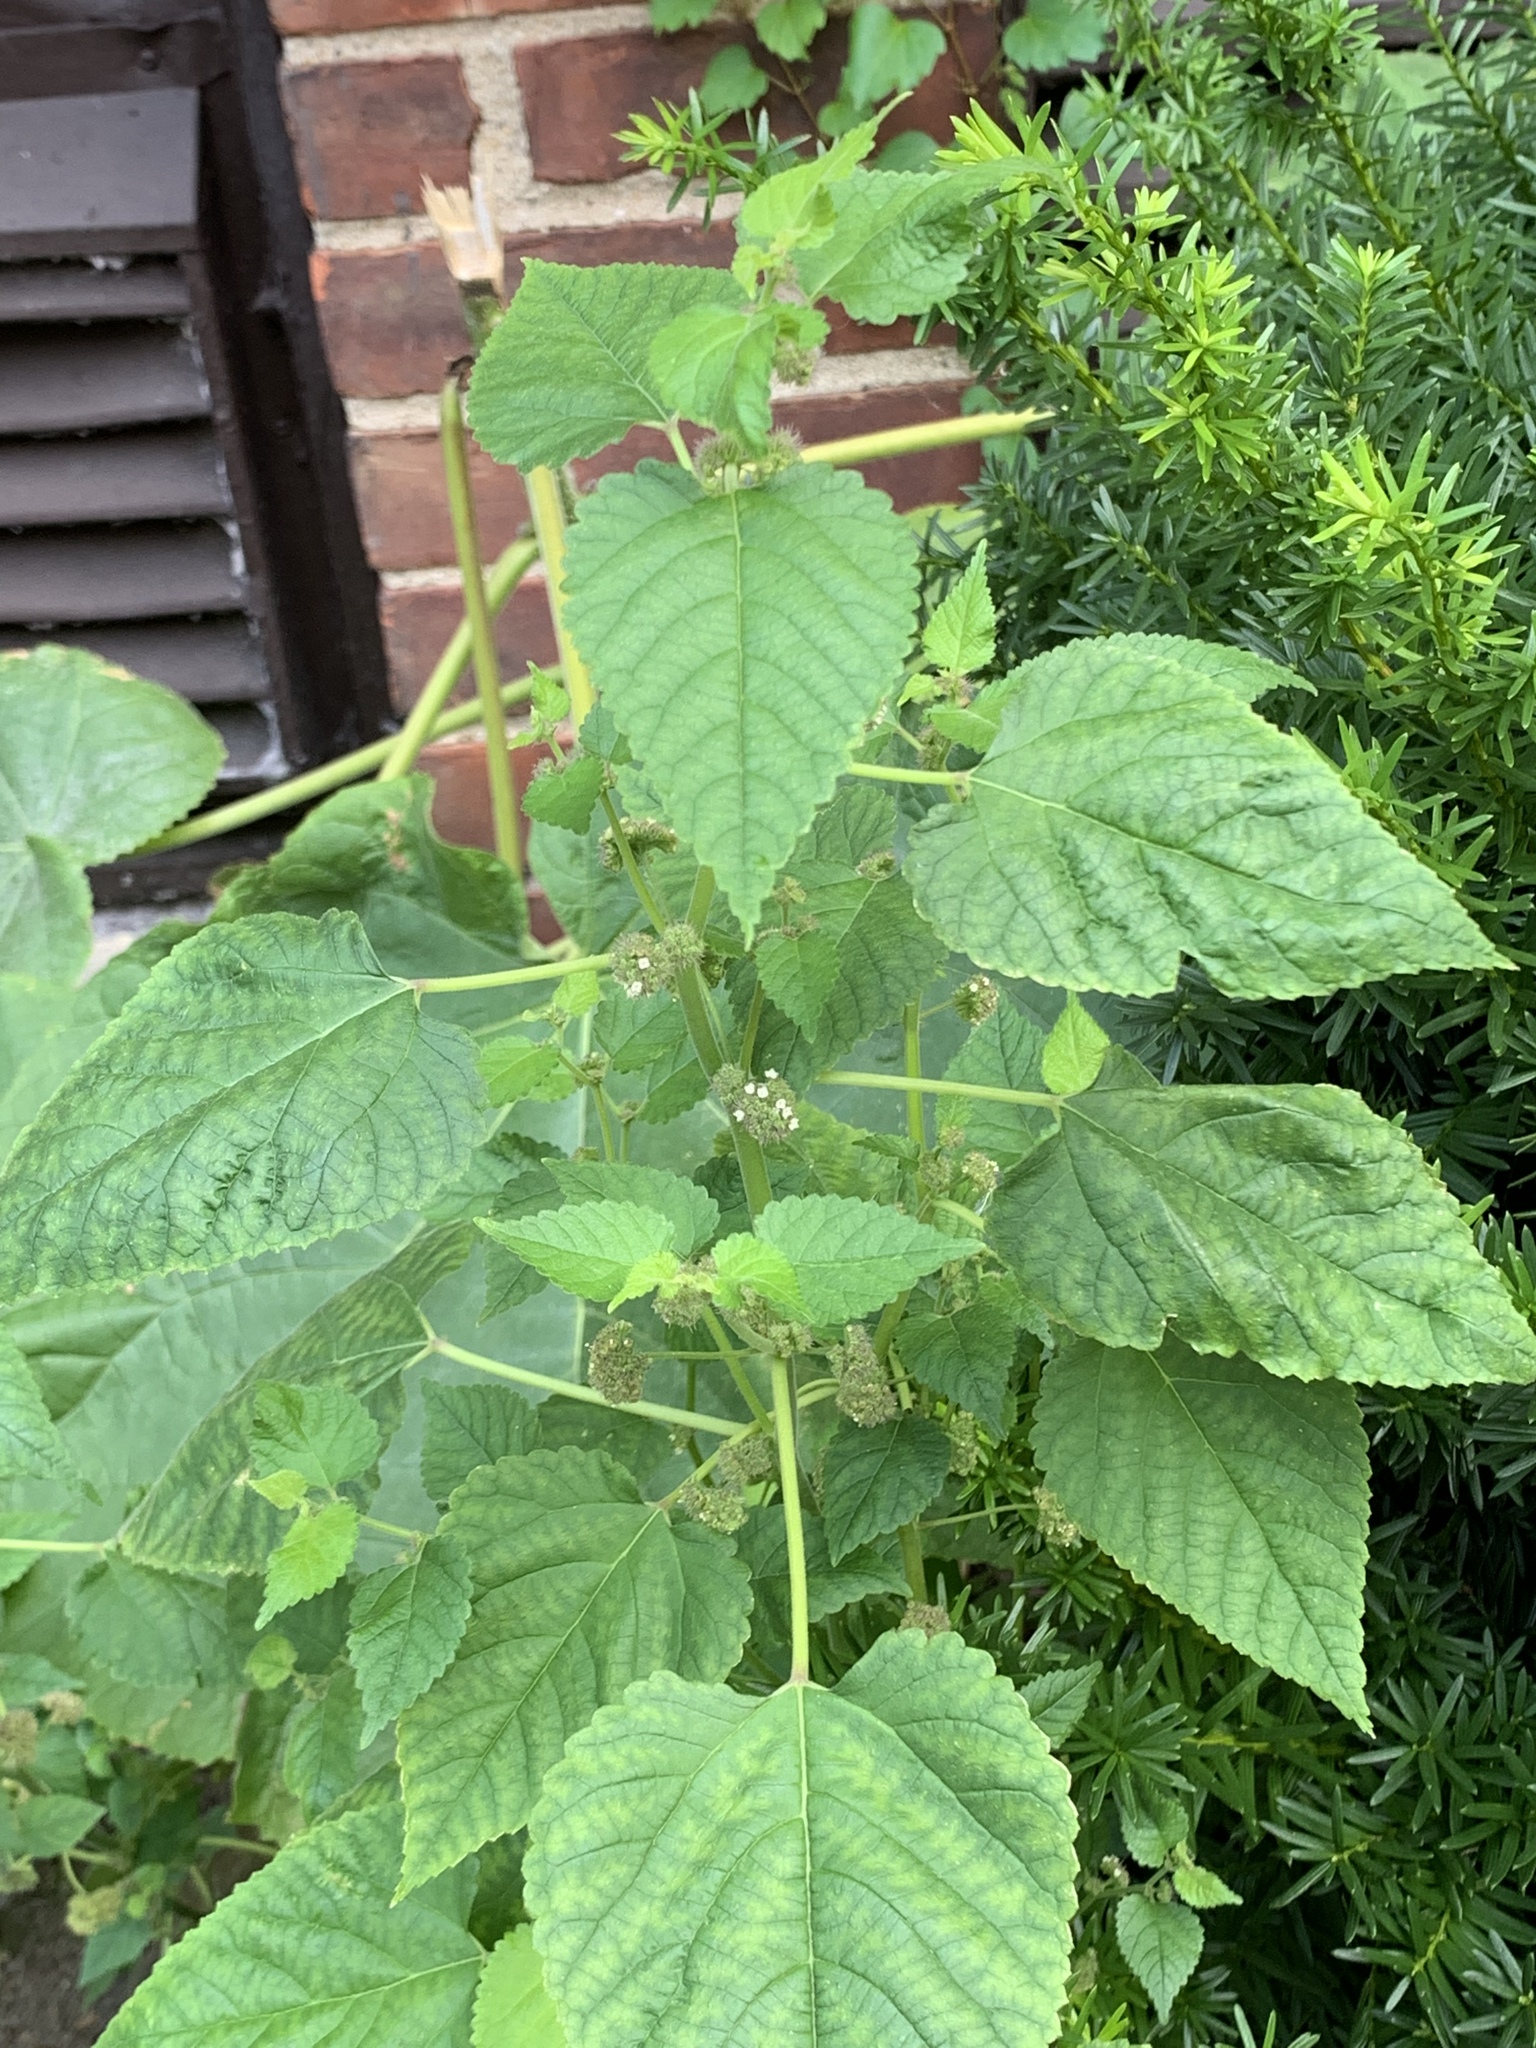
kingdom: Plantae
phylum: Tracheophyta
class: Magnoliopsida
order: Rosales
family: Moraceae
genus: Fatoua
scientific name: Fatoua villosa
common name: Hairy crabweed
